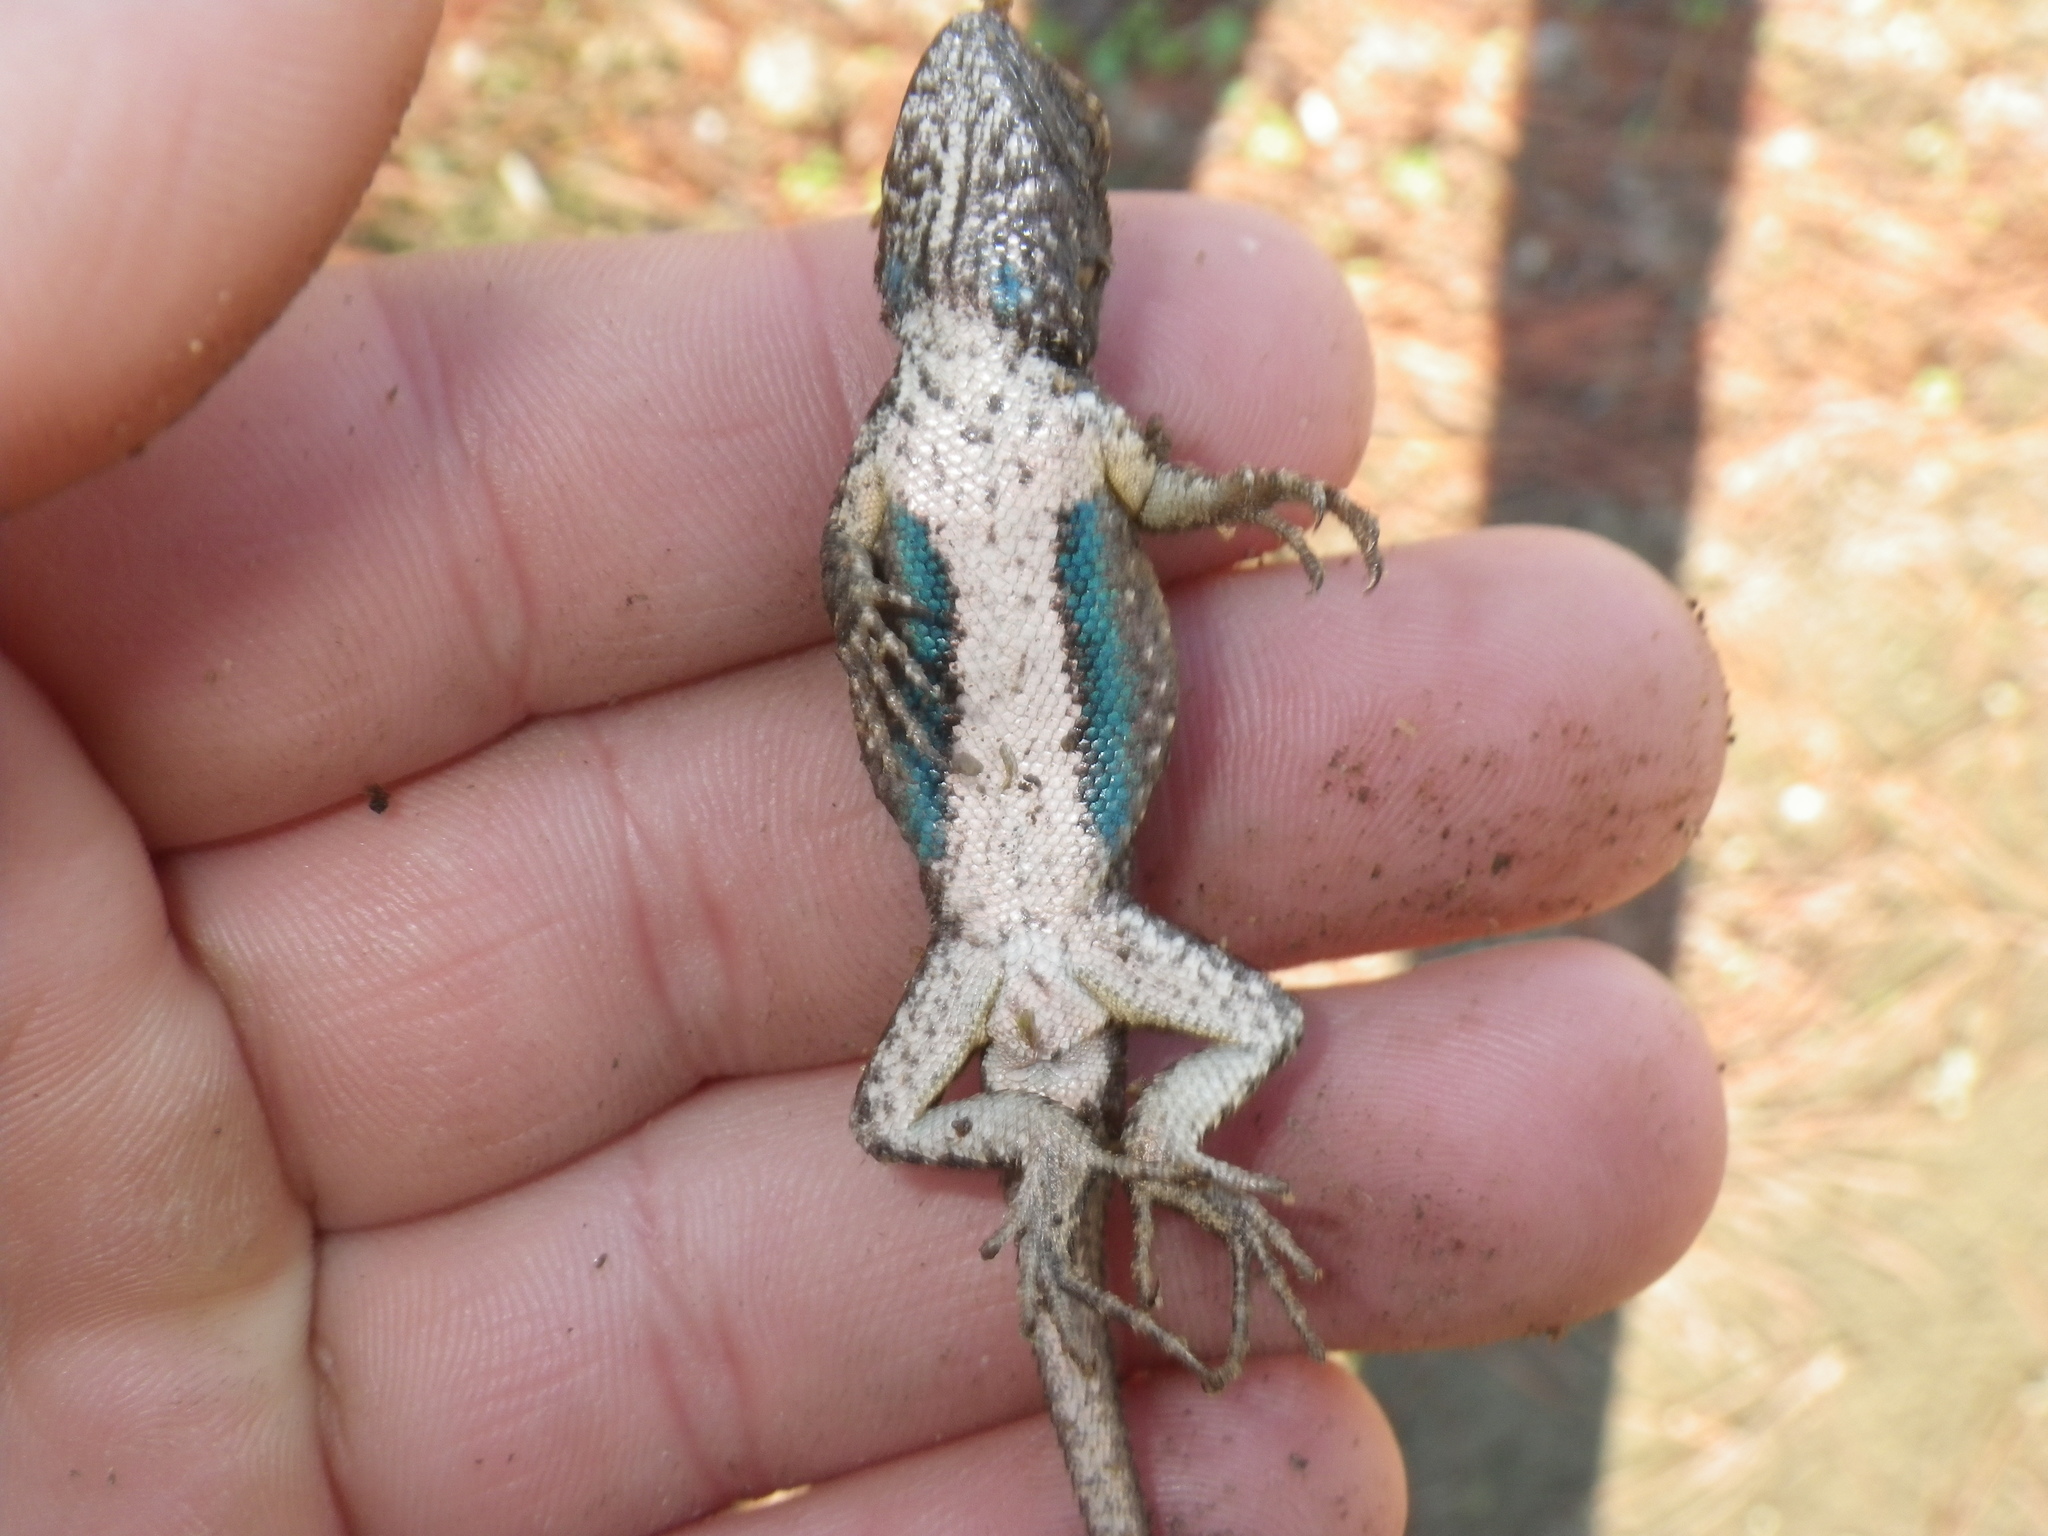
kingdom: Animalia
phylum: Chordata
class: Squamata
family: Phrynosomatidae
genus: Sceloporus
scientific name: Sceloporus occidentalis
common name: Western fence lizard
